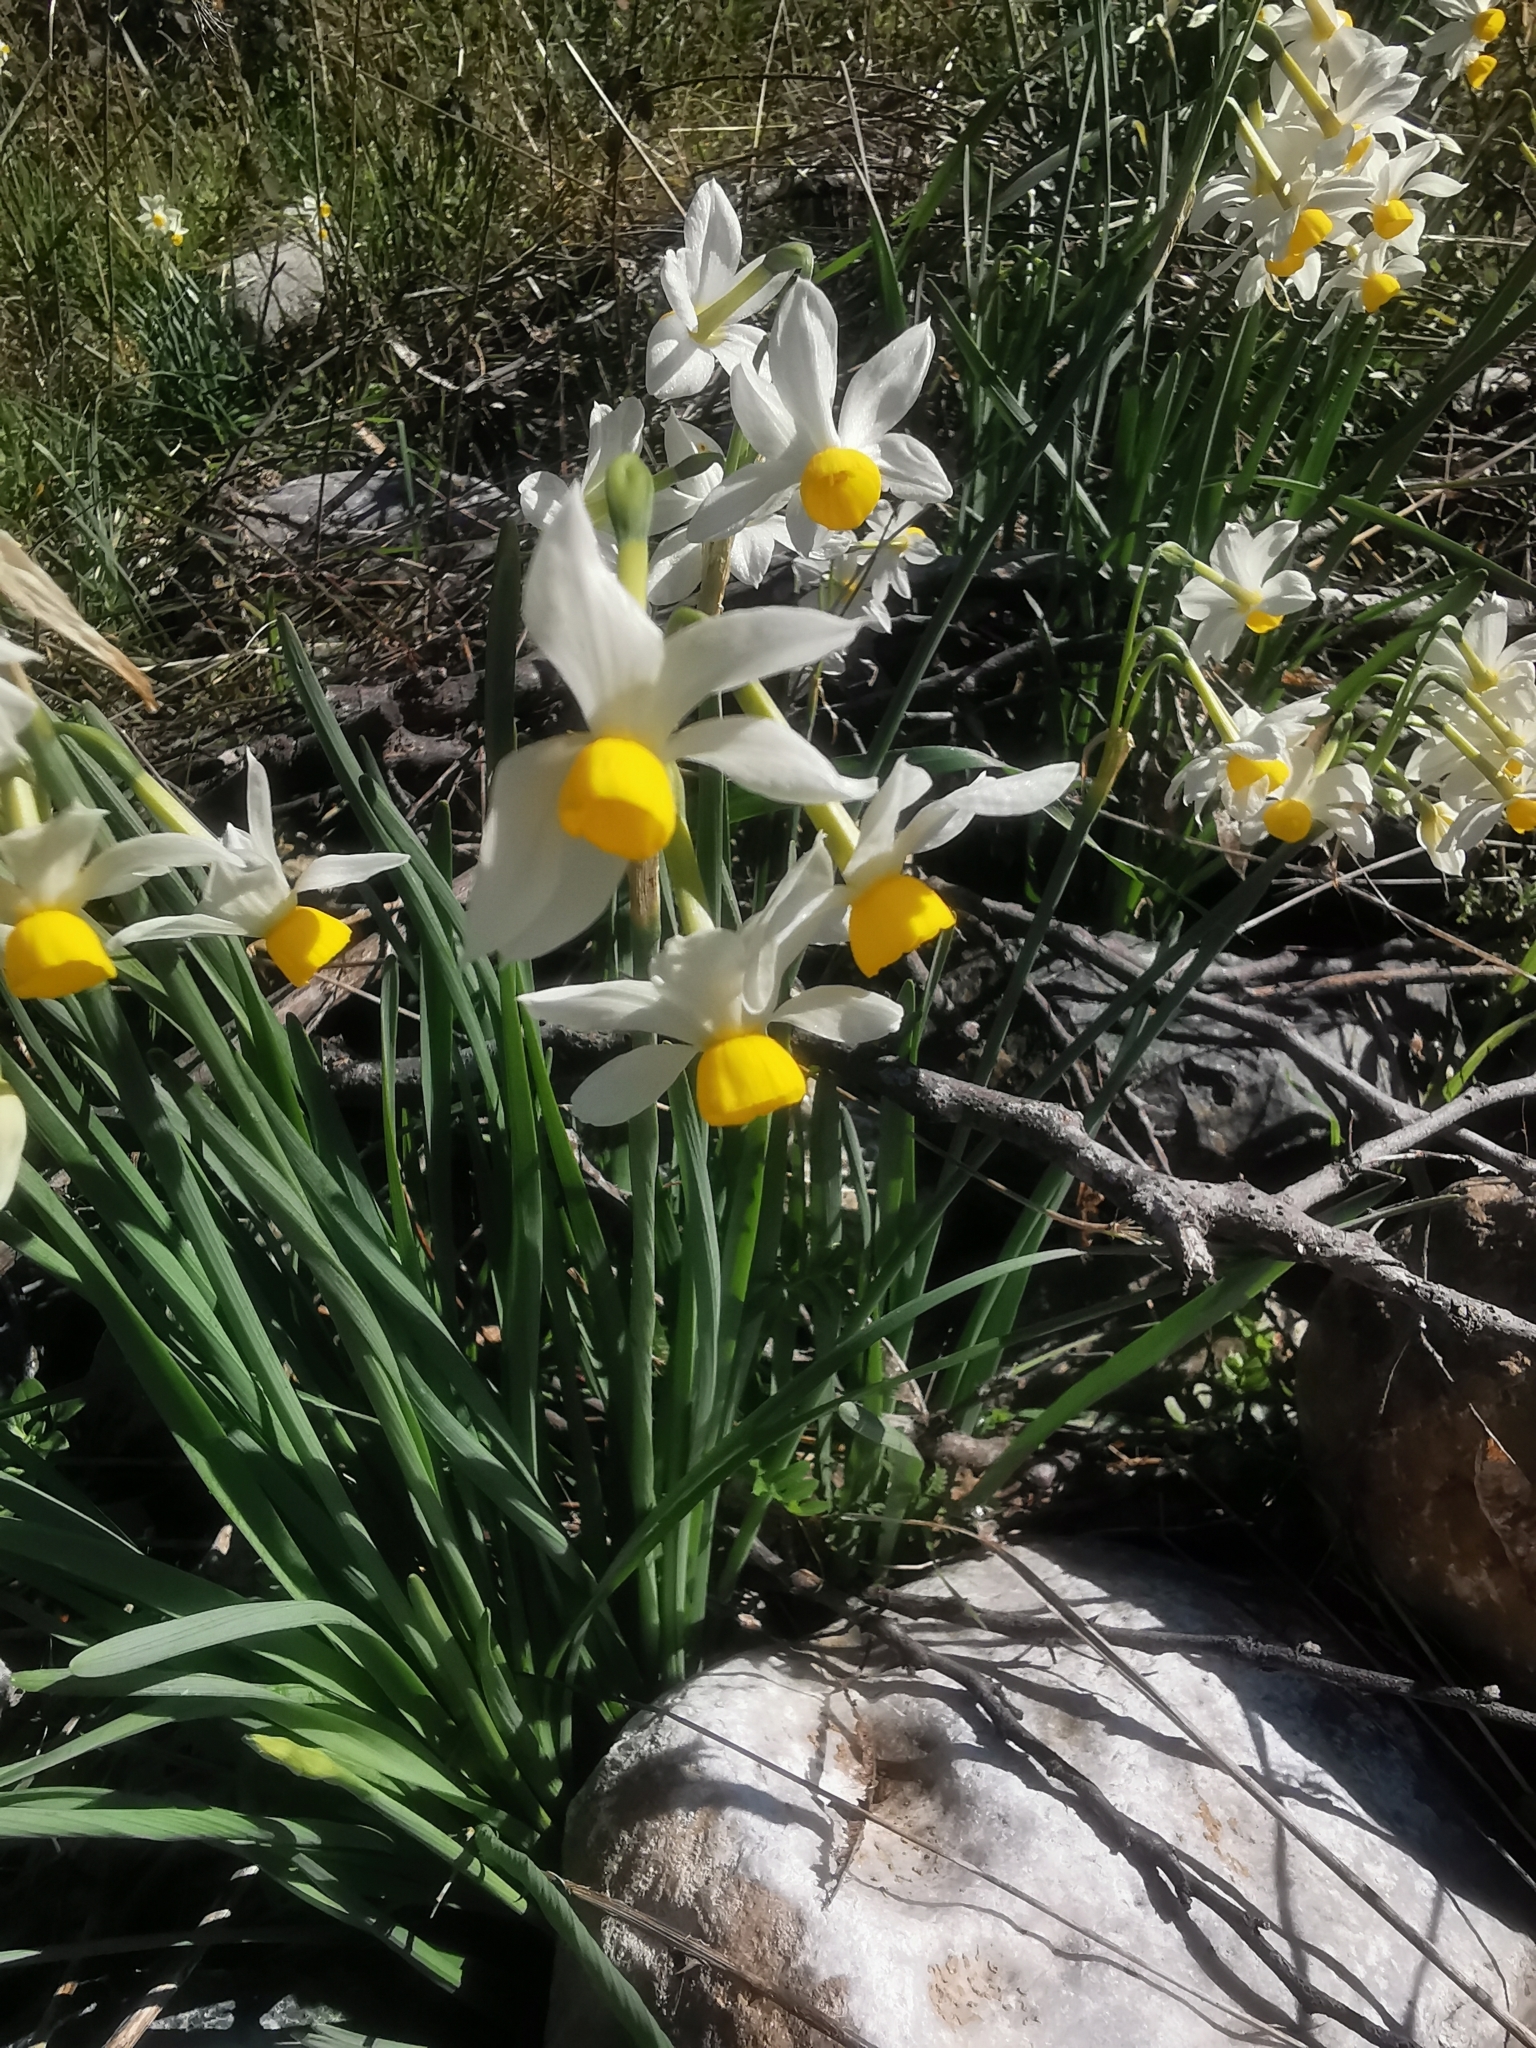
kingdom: Plantae
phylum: Tracheophyta
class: Liliopsida
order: Asparagales
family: Amaryllidaceae
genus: Narcissus
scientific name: Narcissus tazetta
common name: Bunch-flowered daffodil
